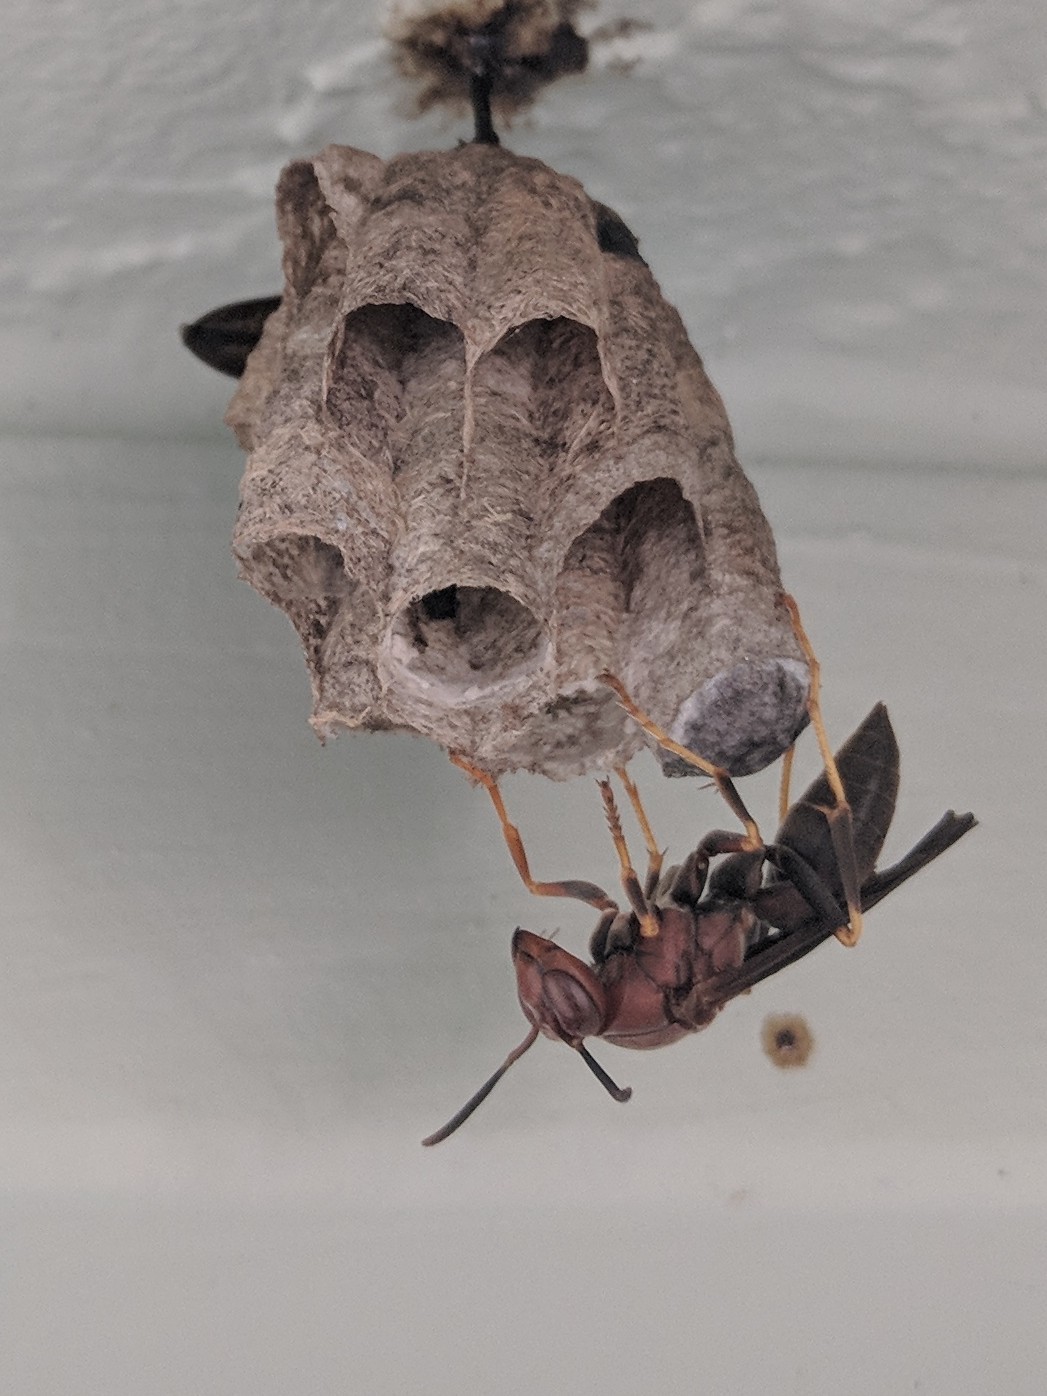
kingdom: Animalia
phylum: Arthropoda
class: Insecta
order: Hymenoptera
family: Eumenidae
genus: Polistes
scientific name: Polistes metricus
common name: Metric paper wasp
